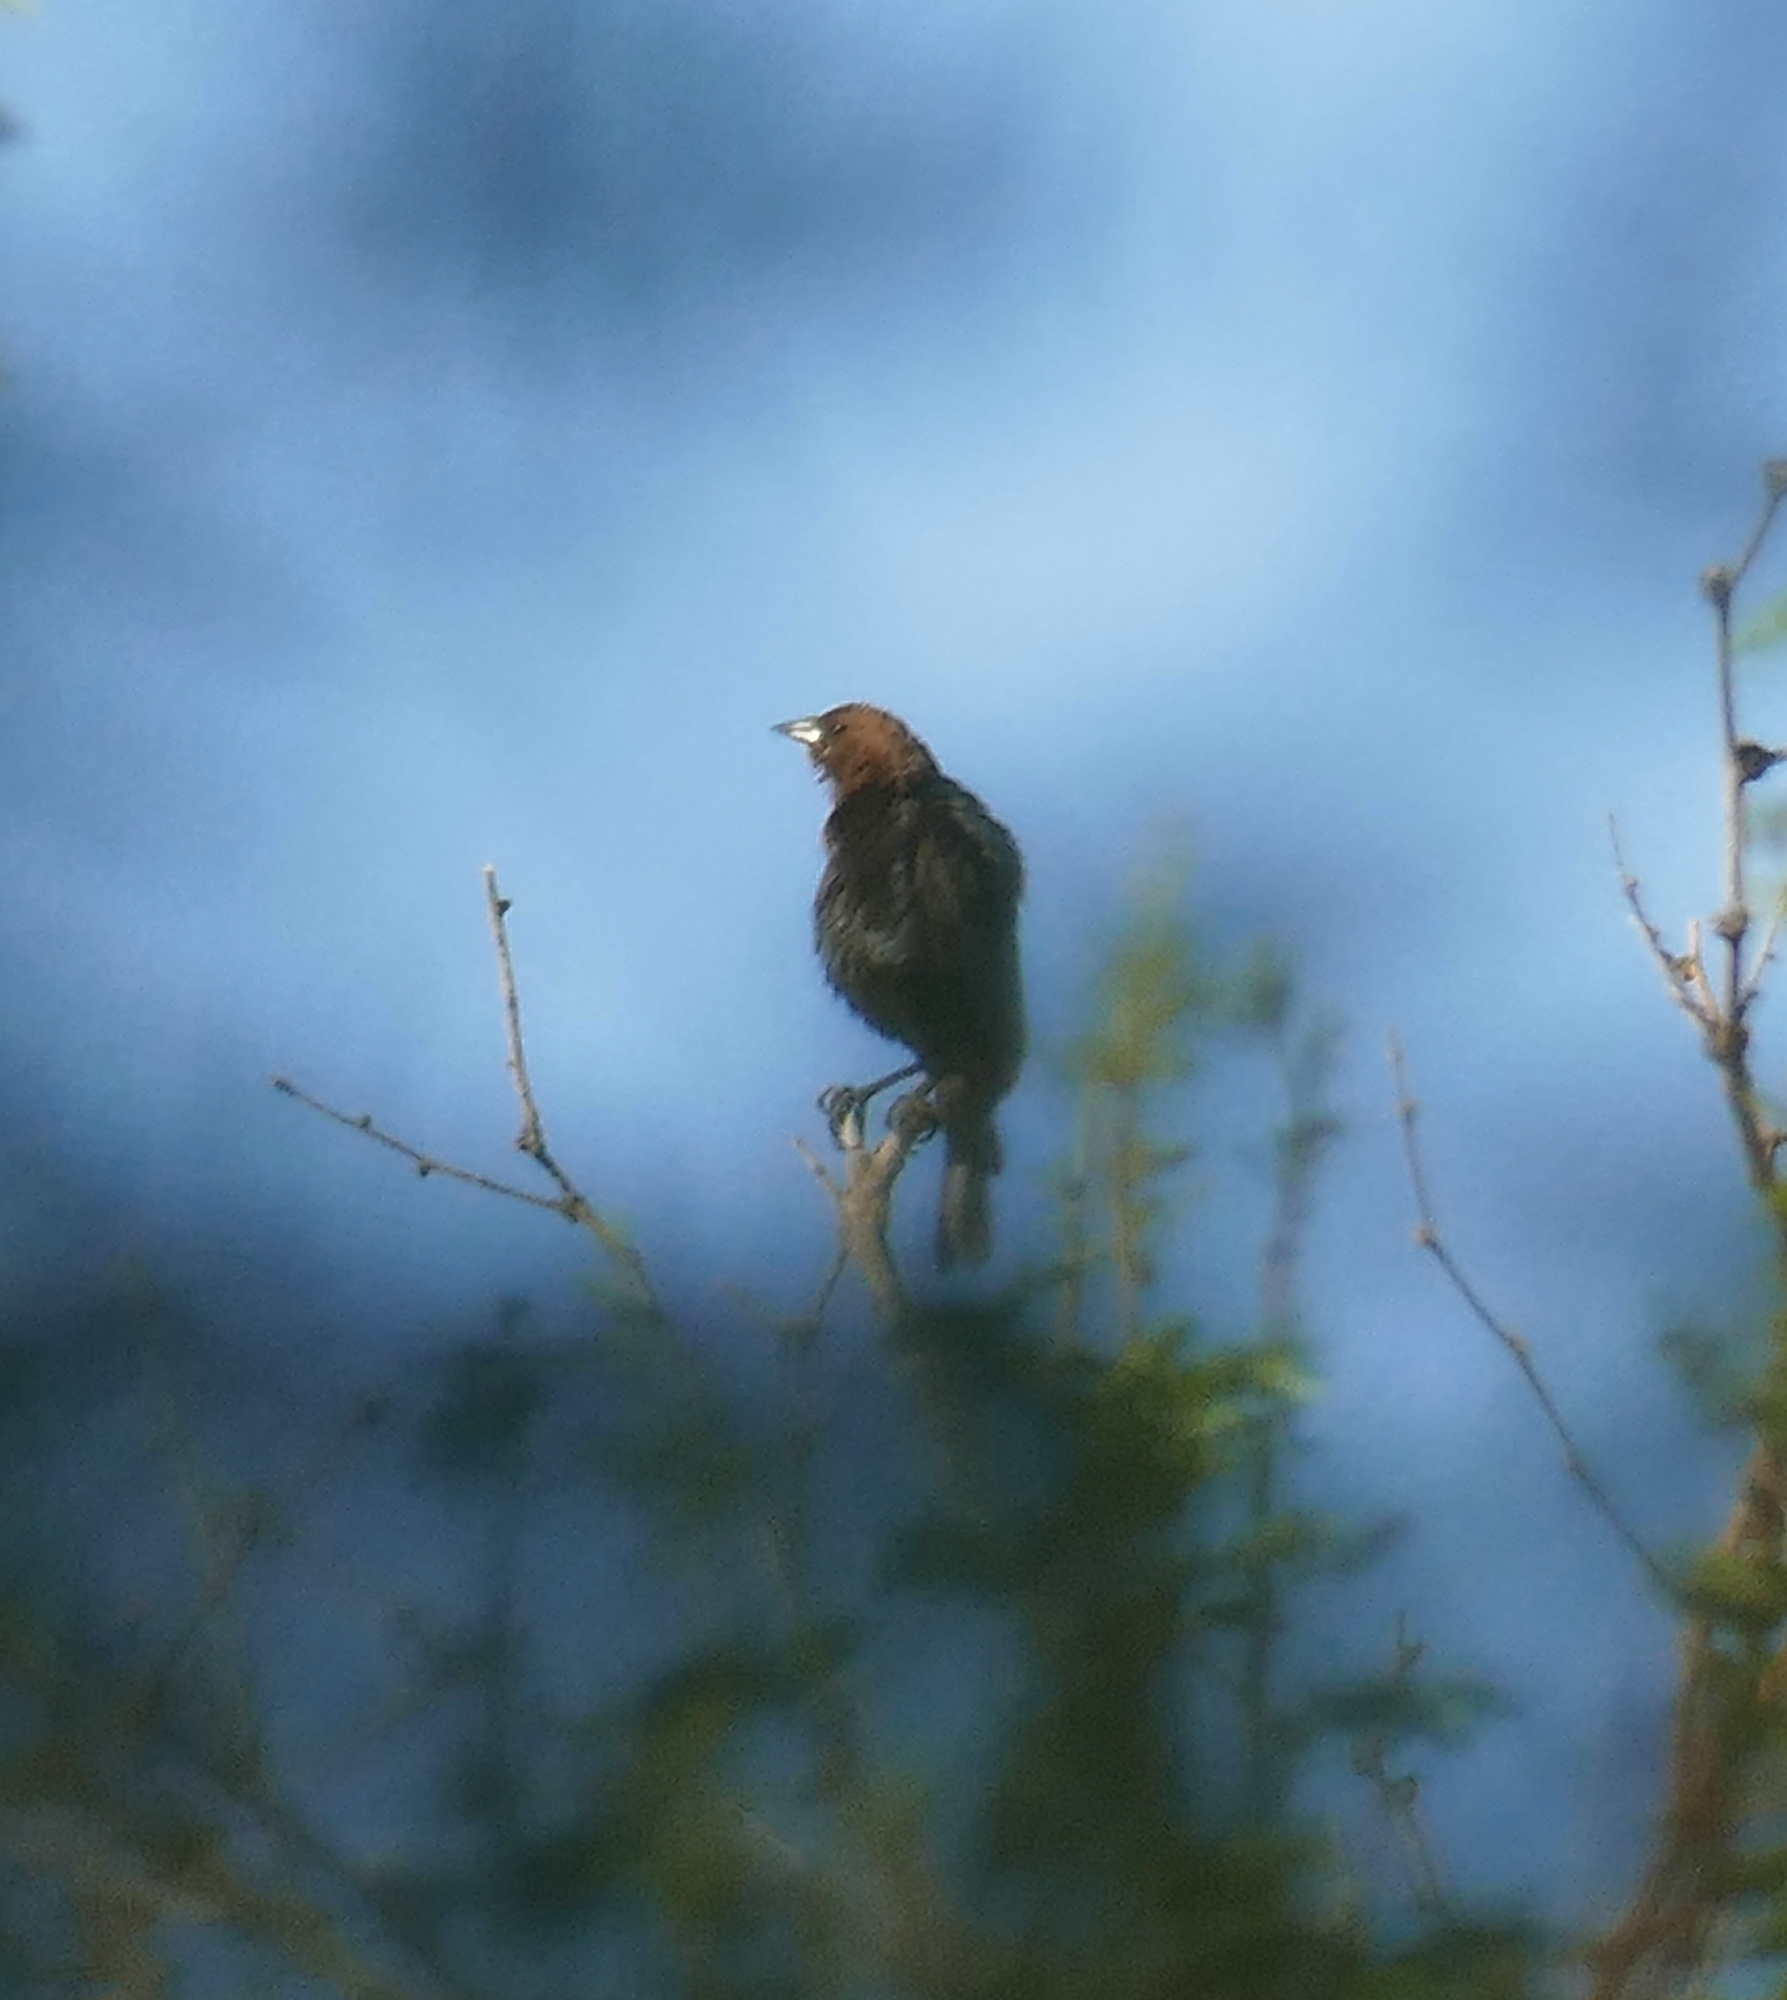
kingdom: Animalia
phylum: Chordata
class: Aves
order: Passeriformes
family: Icteridae
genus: Molothrus
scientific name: Molothrus ater
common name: Brown-headed cowbird
